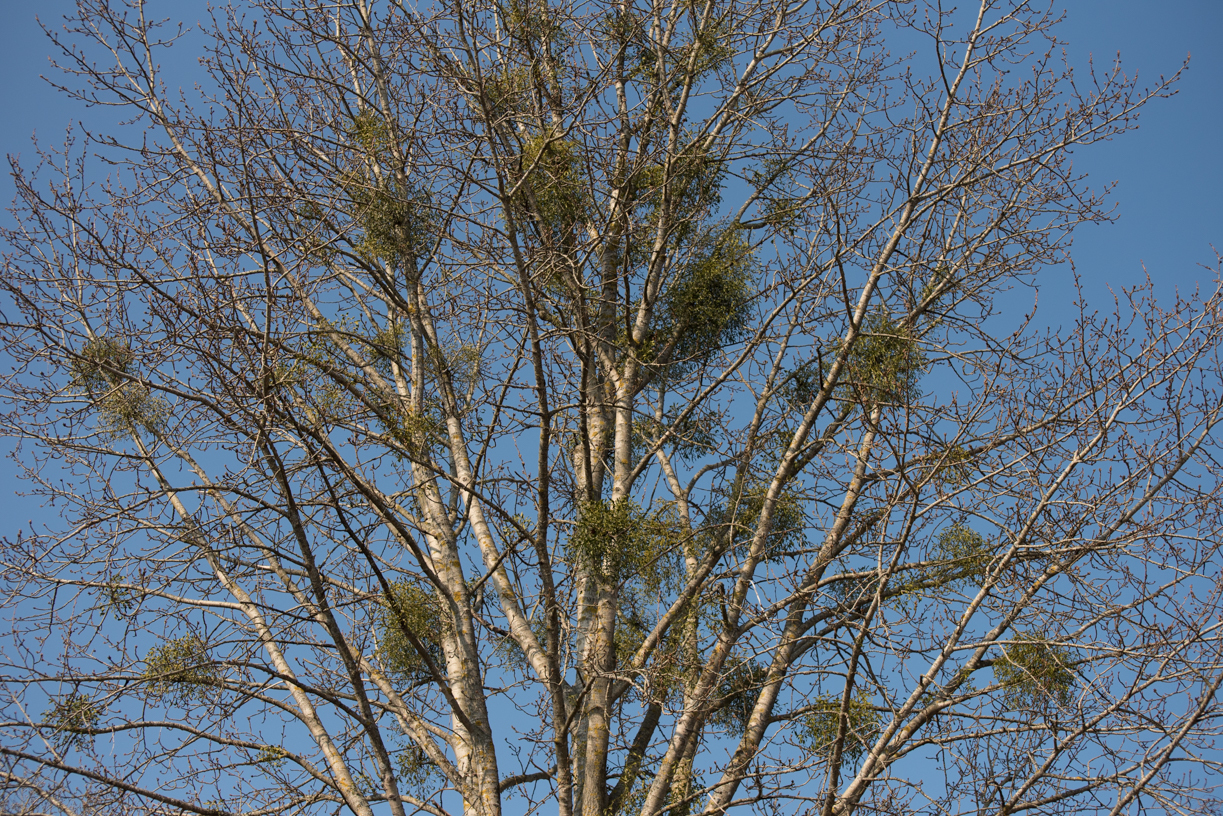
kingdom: Plantae
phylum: Tracheophyta
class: Magnoliopsida
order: Santalales
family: Viscaceae
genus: Viscum
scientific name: Viscum album
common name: Mistletoe
